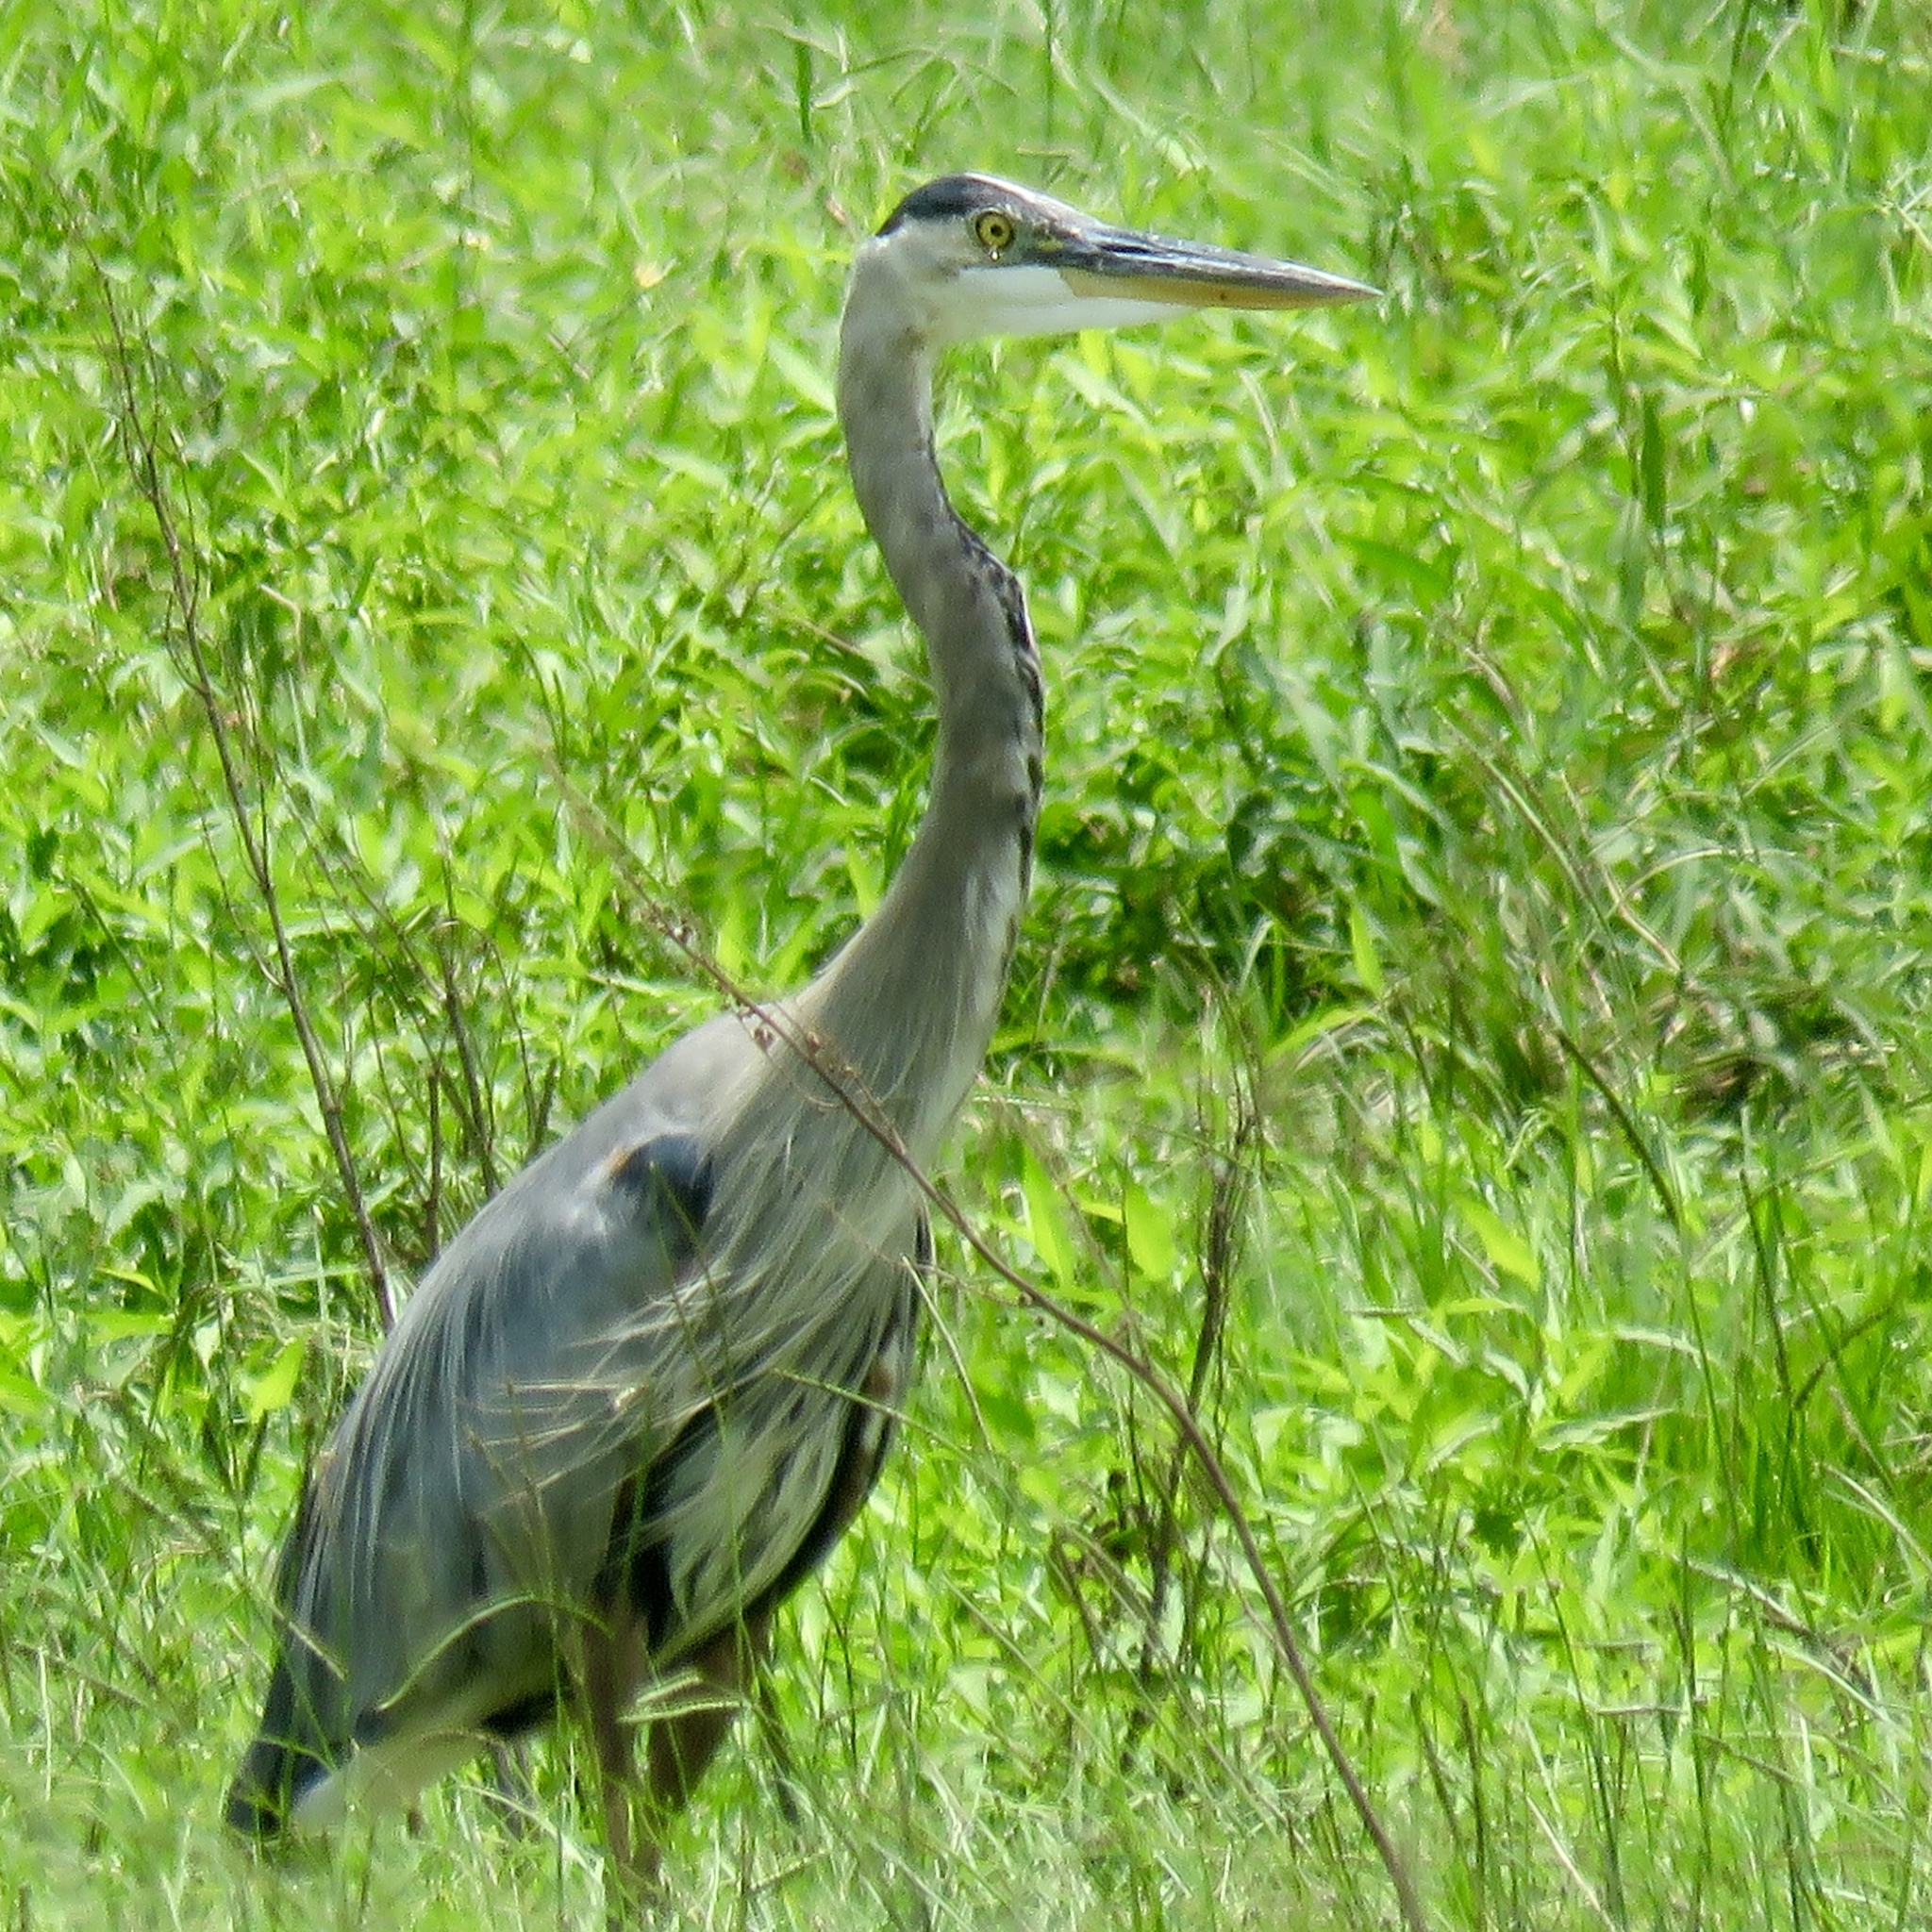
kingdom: Animalia
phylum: Chordata
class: Aves
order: Pelecaniformes
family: Ardeidae
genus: Ardea
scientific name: Ardea herodias
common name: Great blue heron
